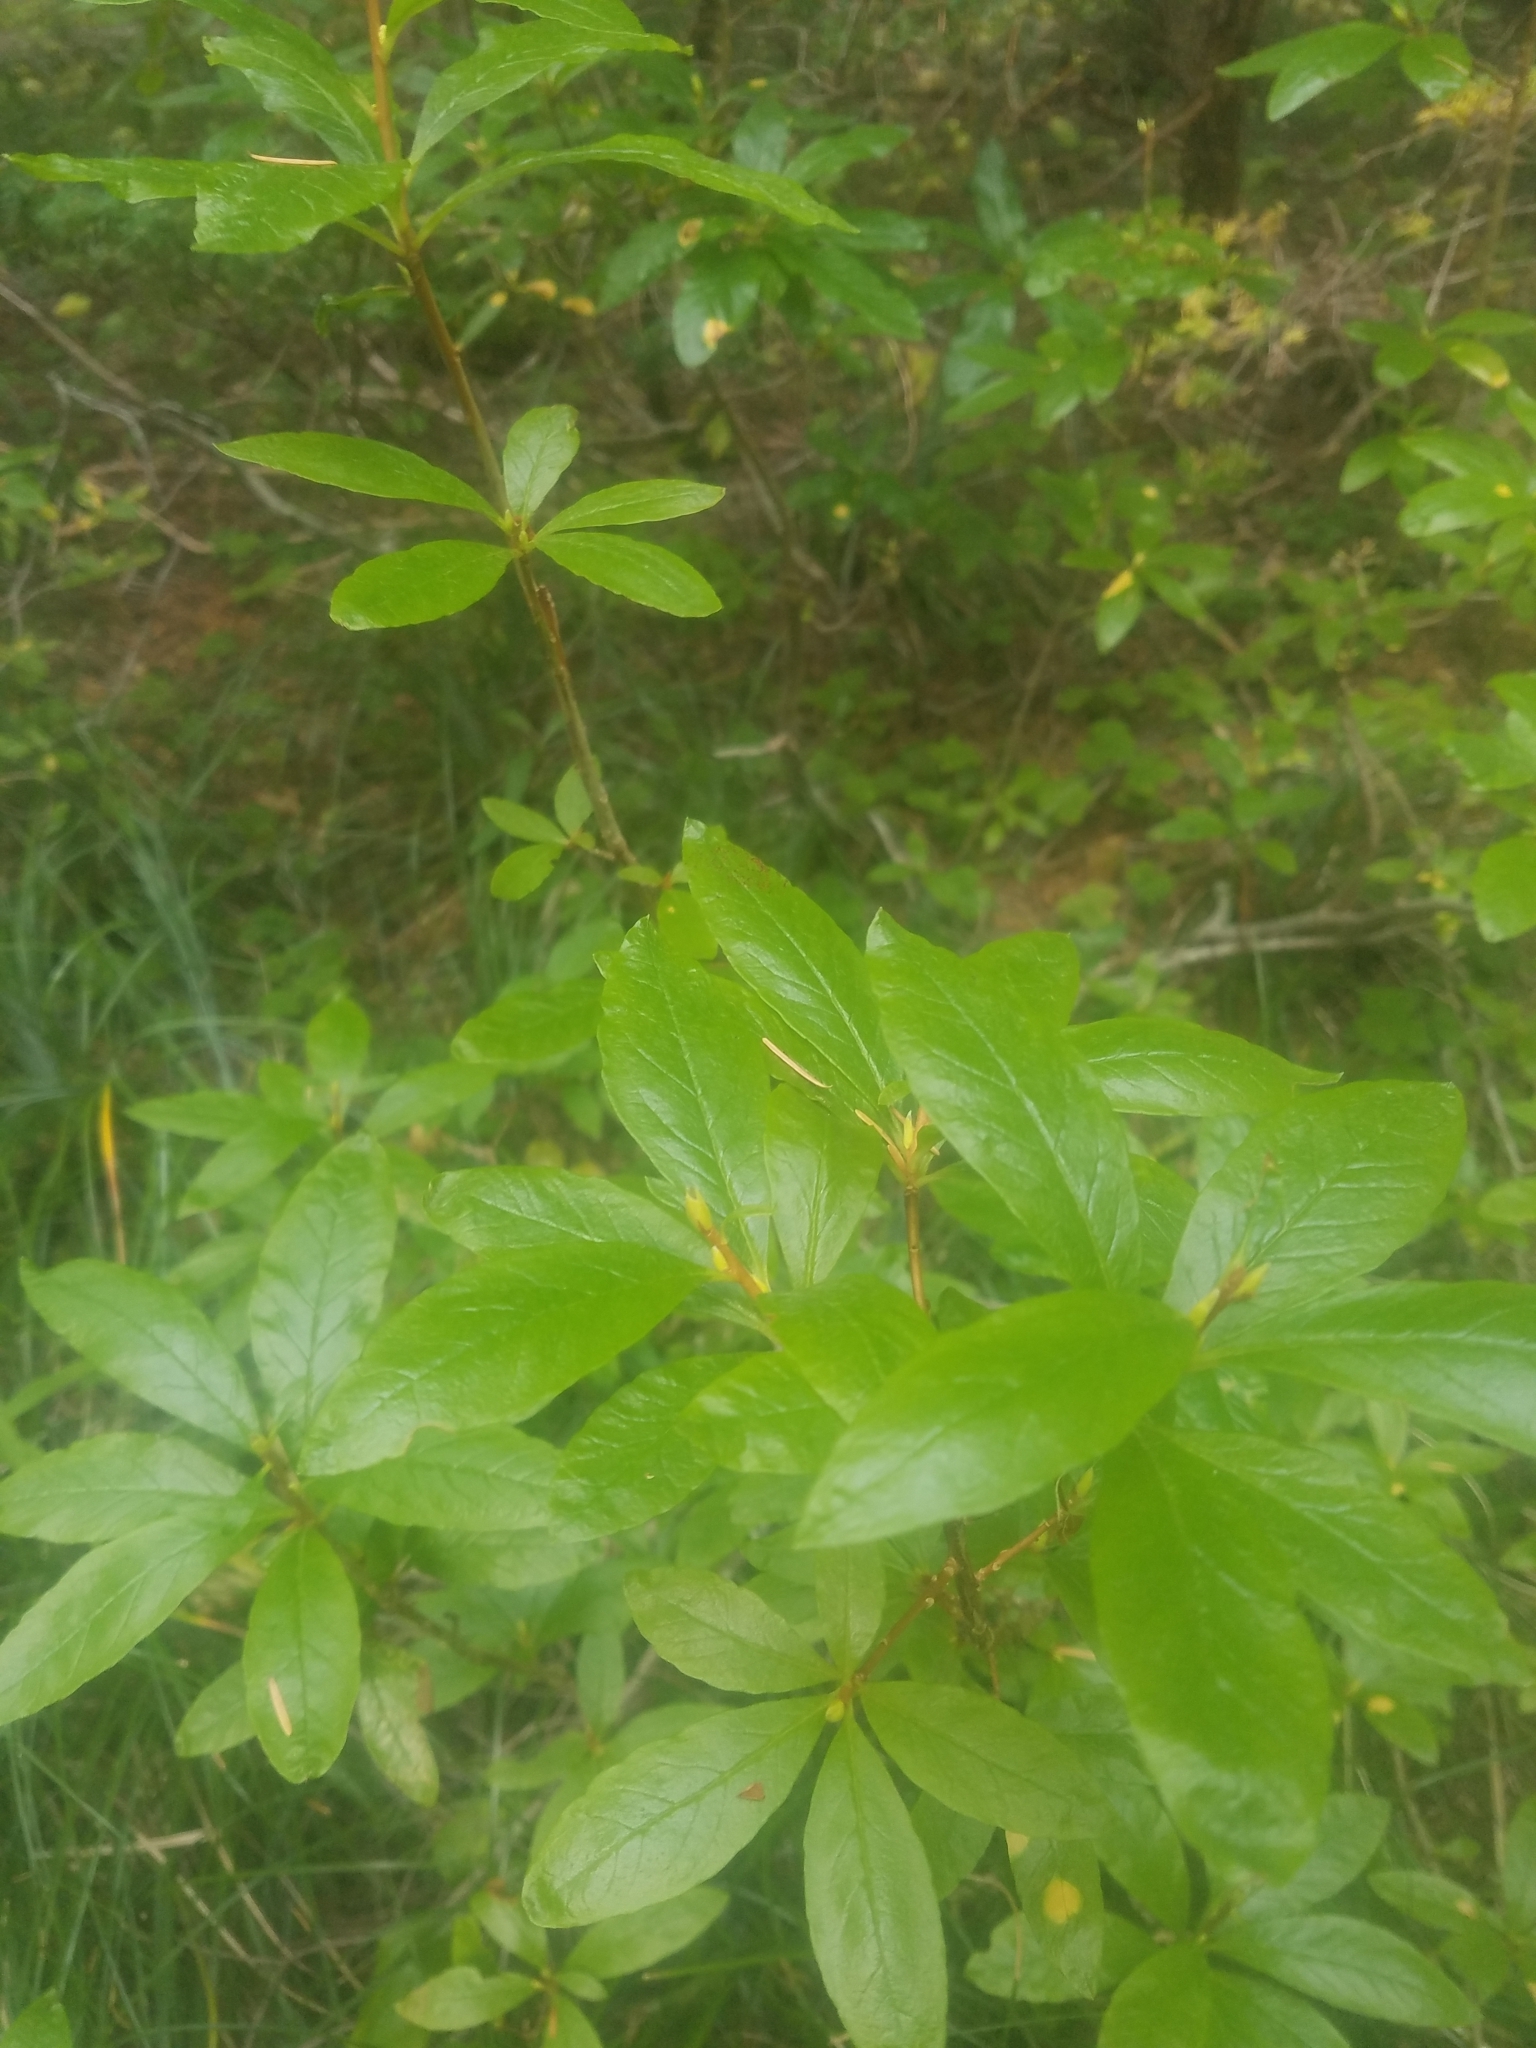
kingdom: Plantae
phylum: Tracheophyta
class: Magnoliopsida
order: Ericales
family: Ericaceae
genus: Rhododendron
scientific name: Rhododendron albiflorum
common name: White rhododendron
